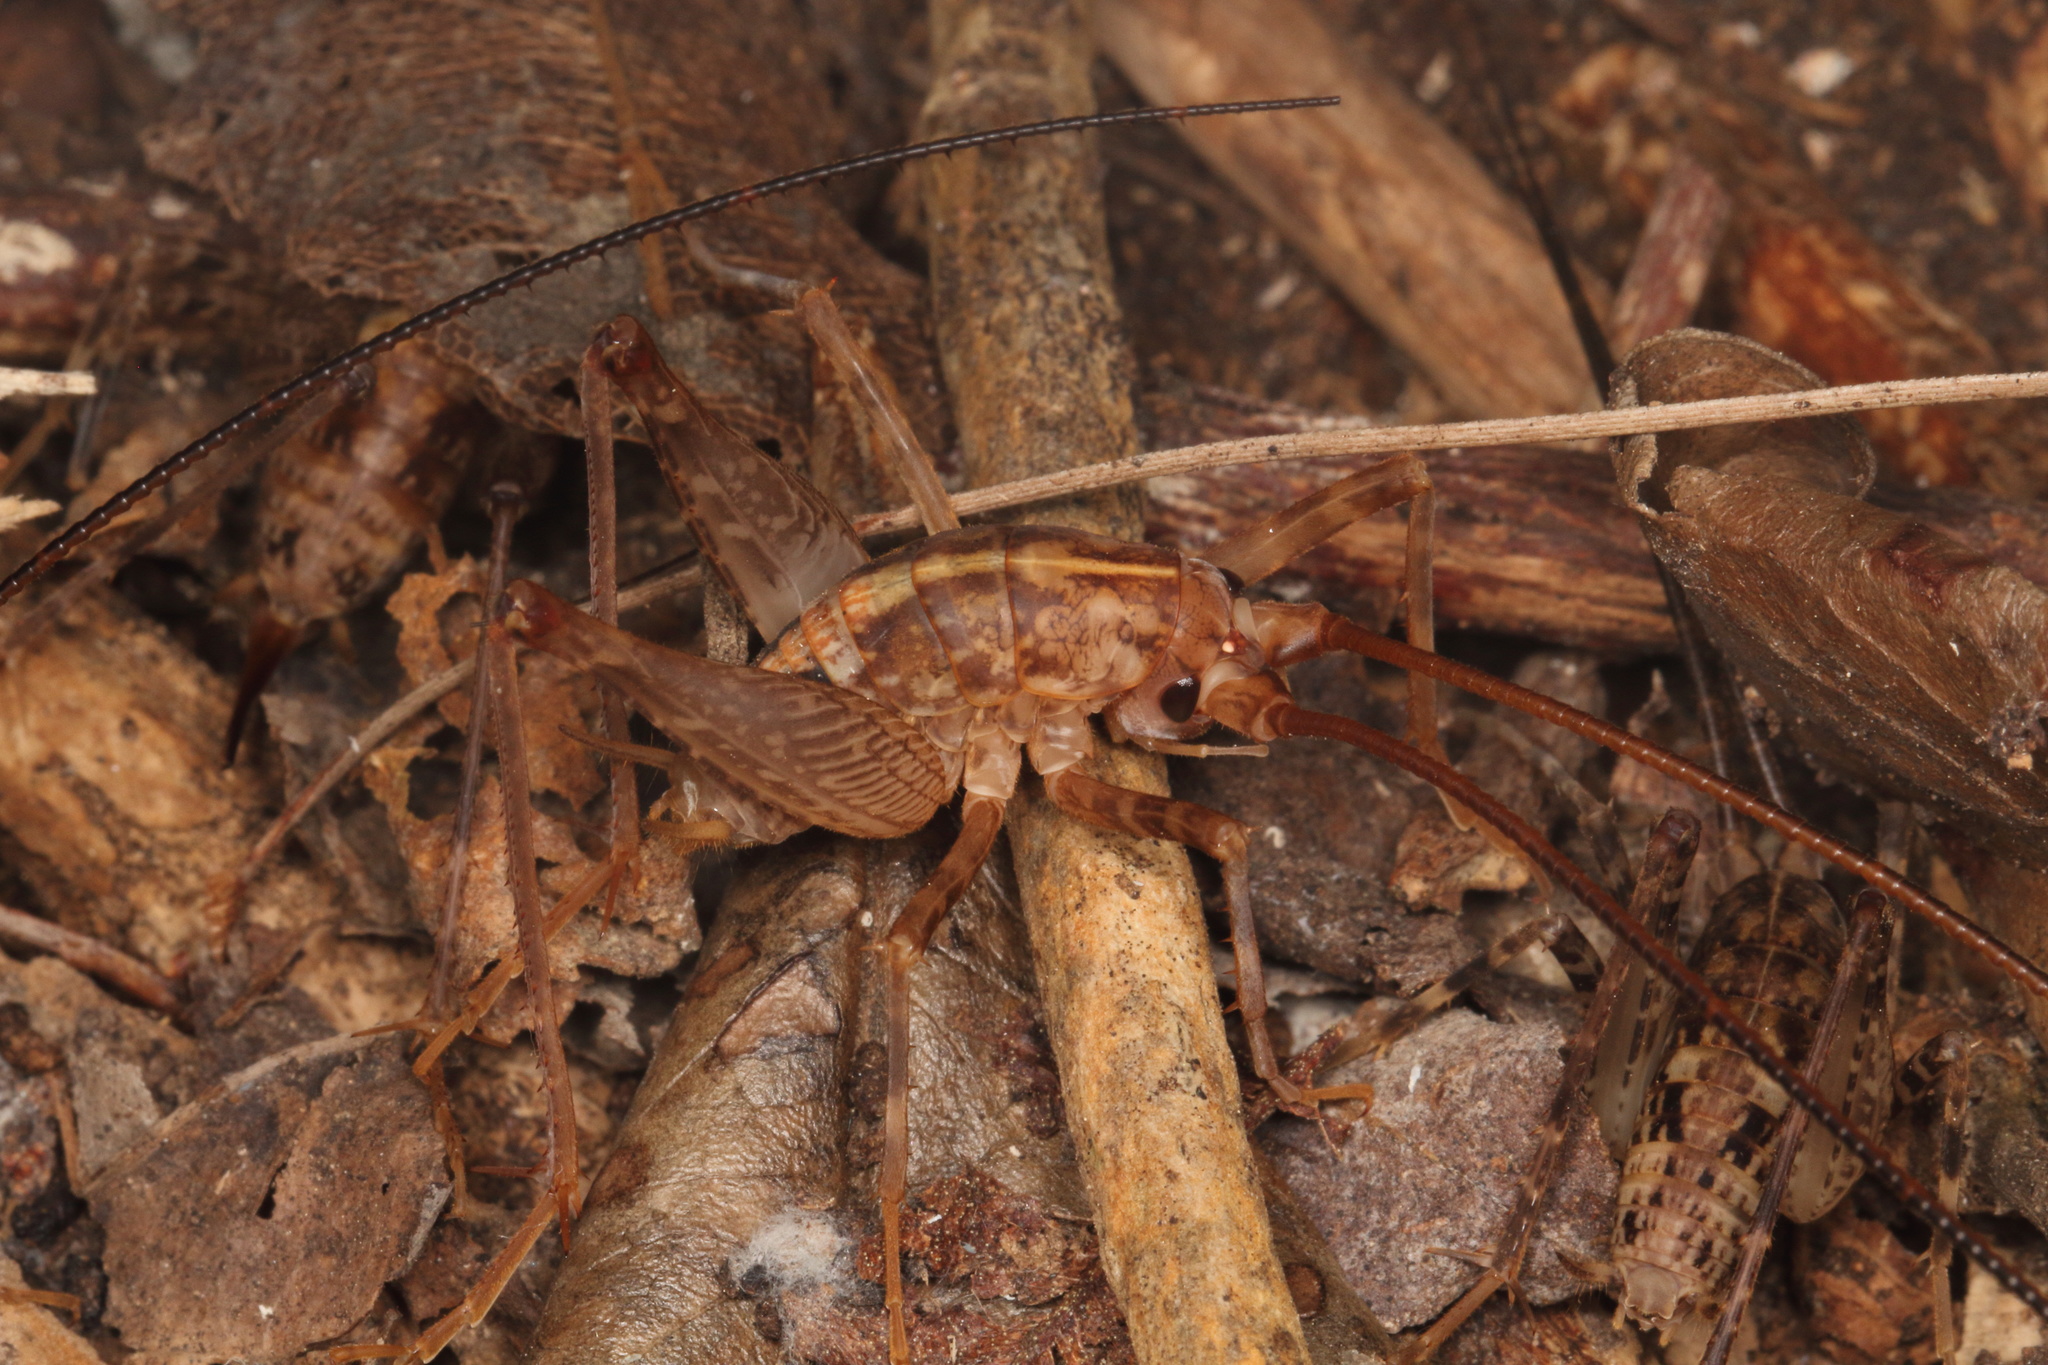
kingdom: Animalia
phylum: Arthropoda
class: Insecta
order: Orthoptera
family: Rhaphidophoridae
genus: Pleioplectron
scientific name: Pleioplectron simplex
